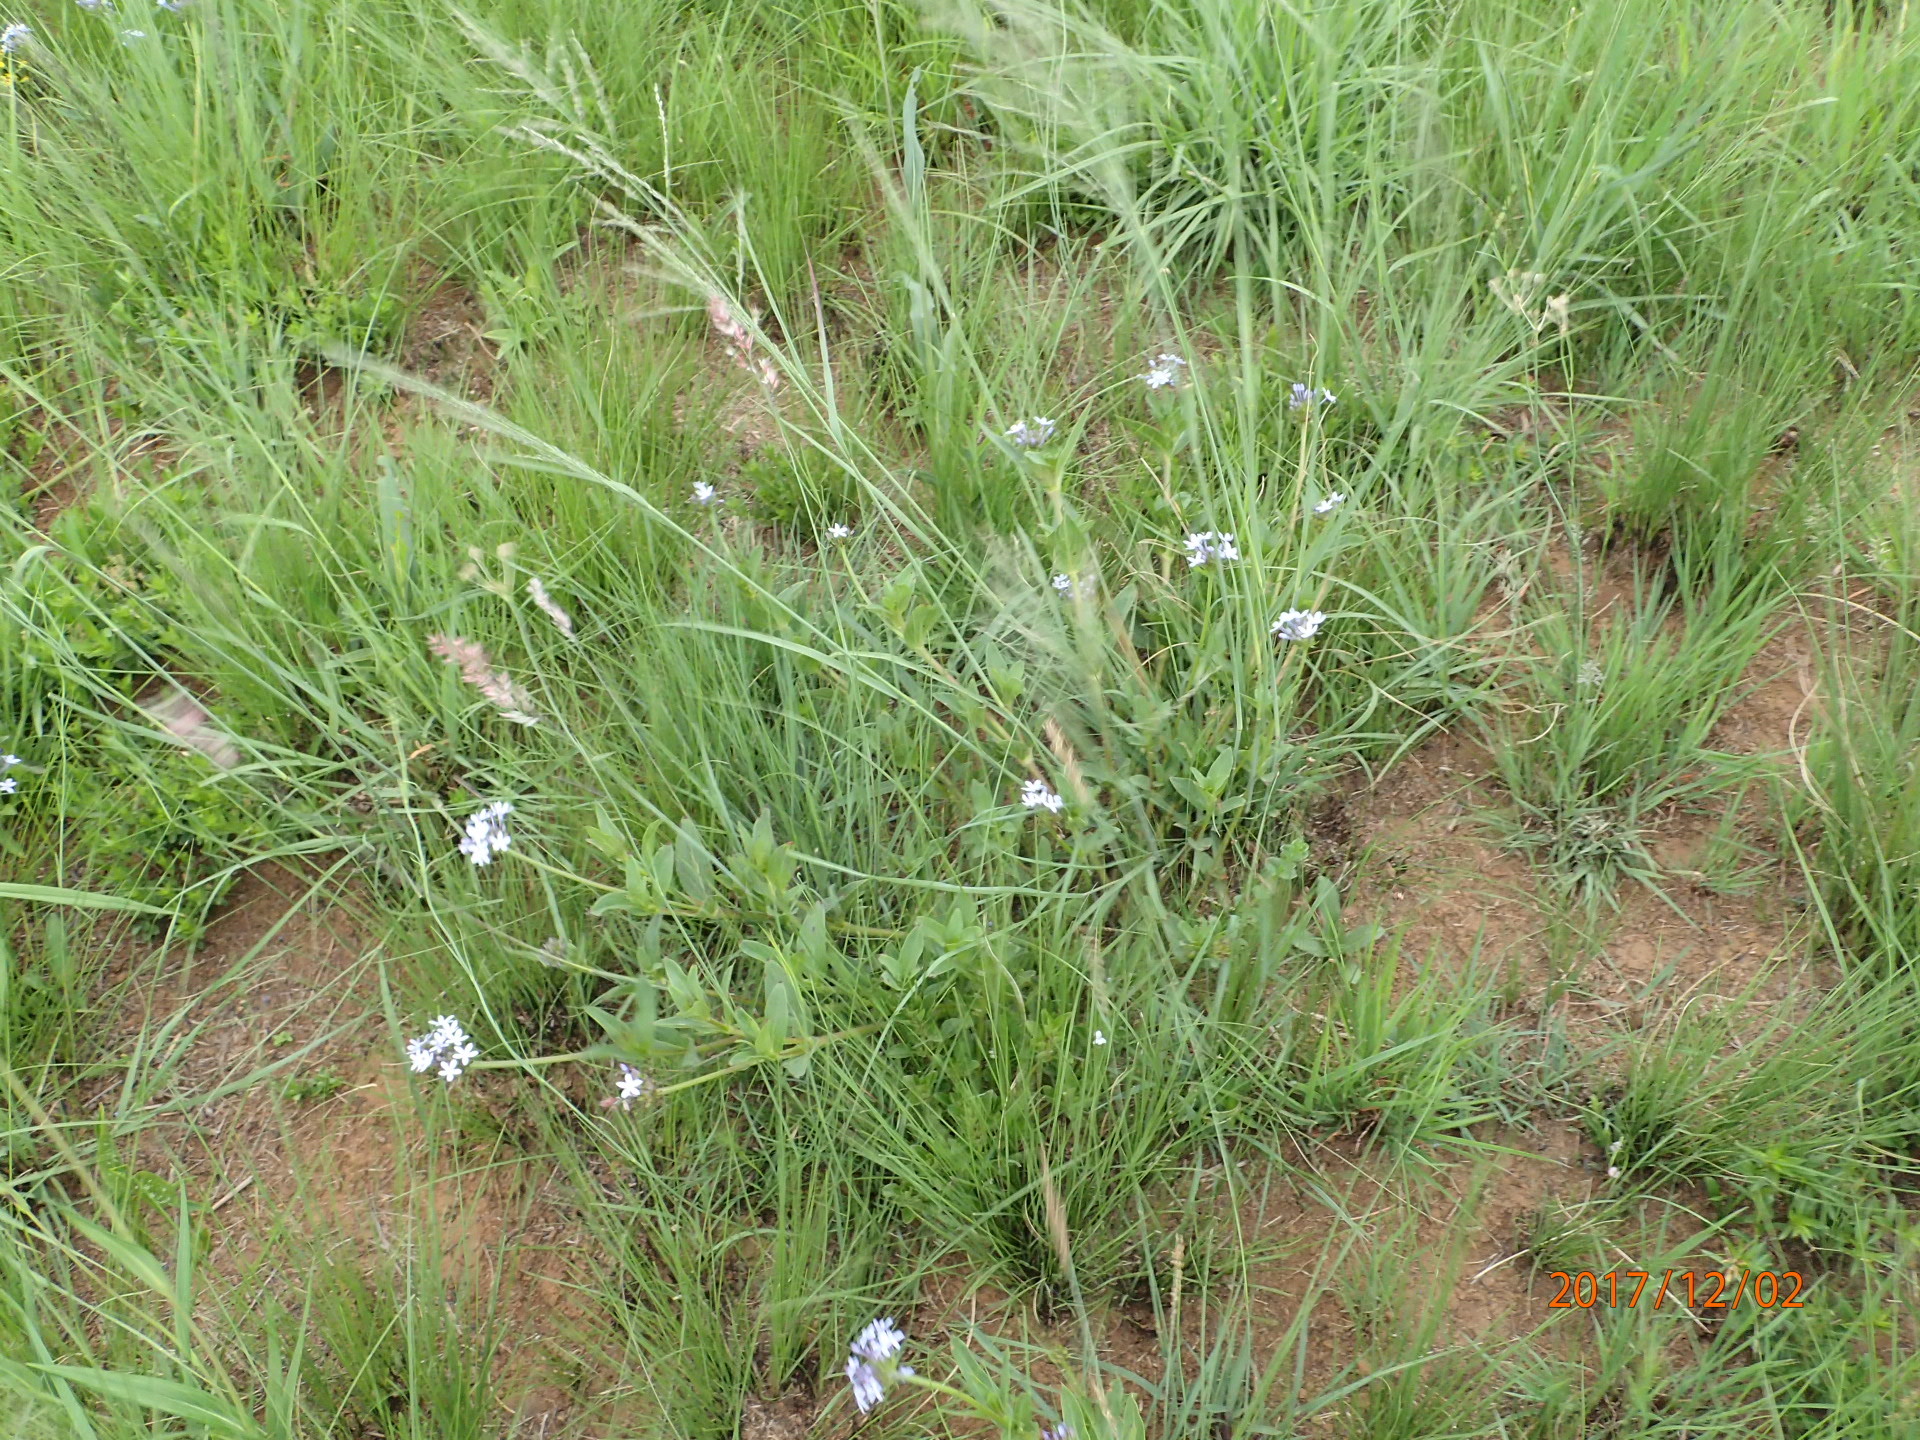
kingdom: Plantae
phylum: Tracheophyta
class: Magnoliopsida
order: Gentianales
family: Rubiaceae
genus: Pentanisia
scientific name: Pentanisia prunelloides
